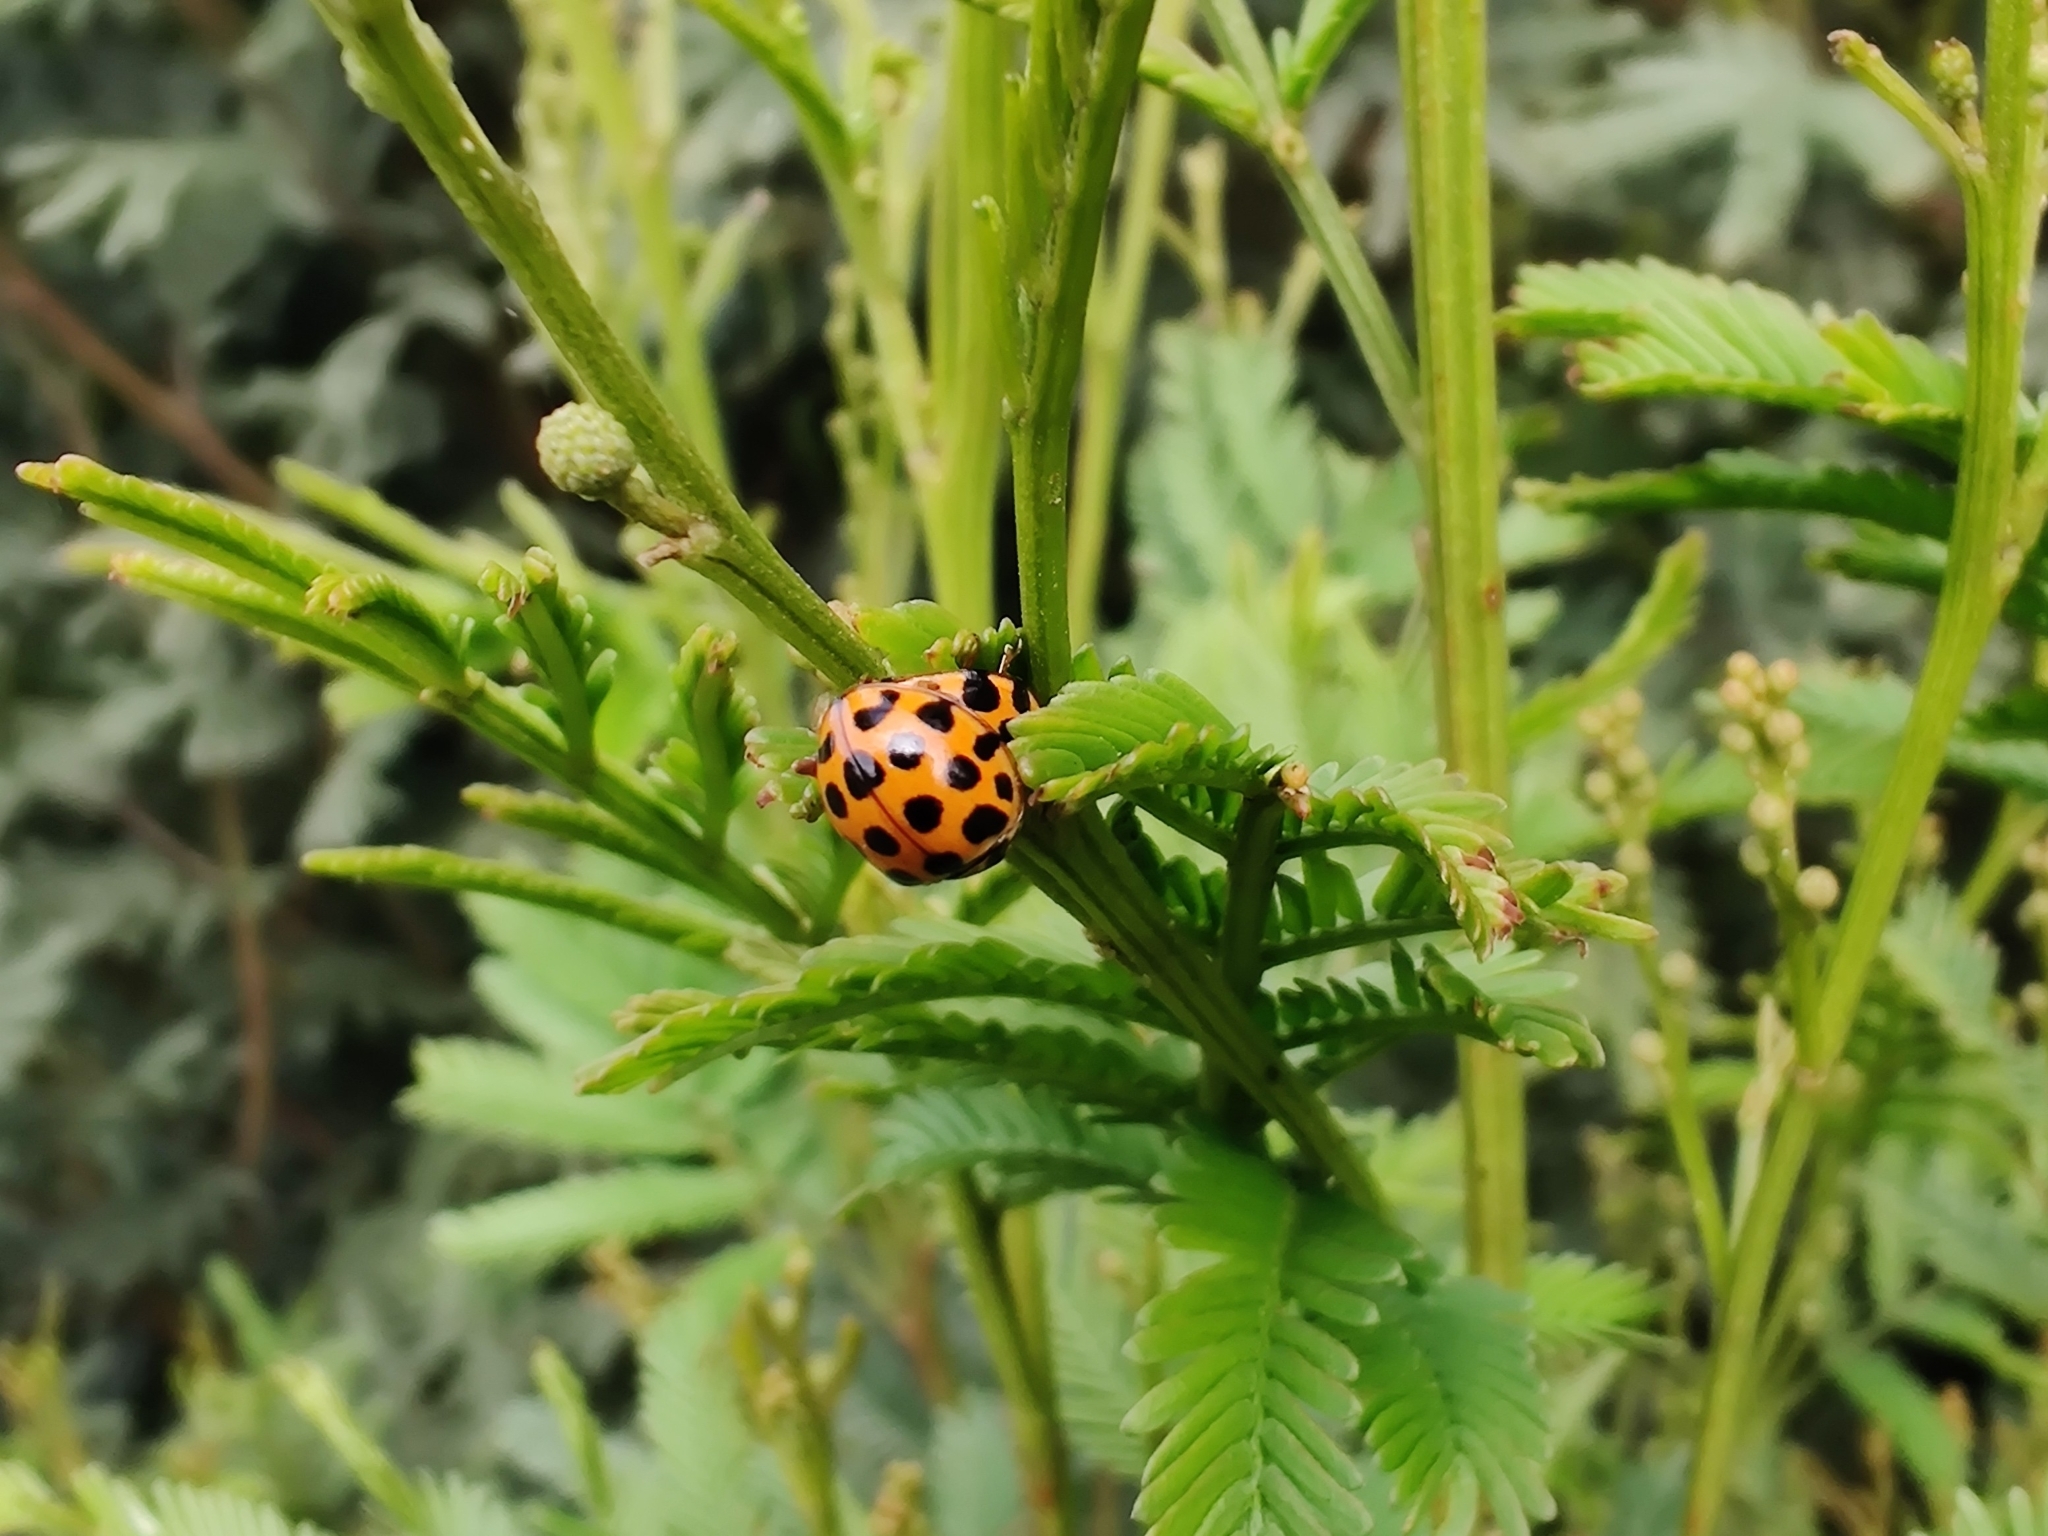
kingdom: Animalia
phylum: Arthropoda
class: Insecta
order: Coleoptera
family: Coccinellidae
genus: Harmonia
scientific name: Harmonia conformis
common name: Common spotted ladybird beetle
